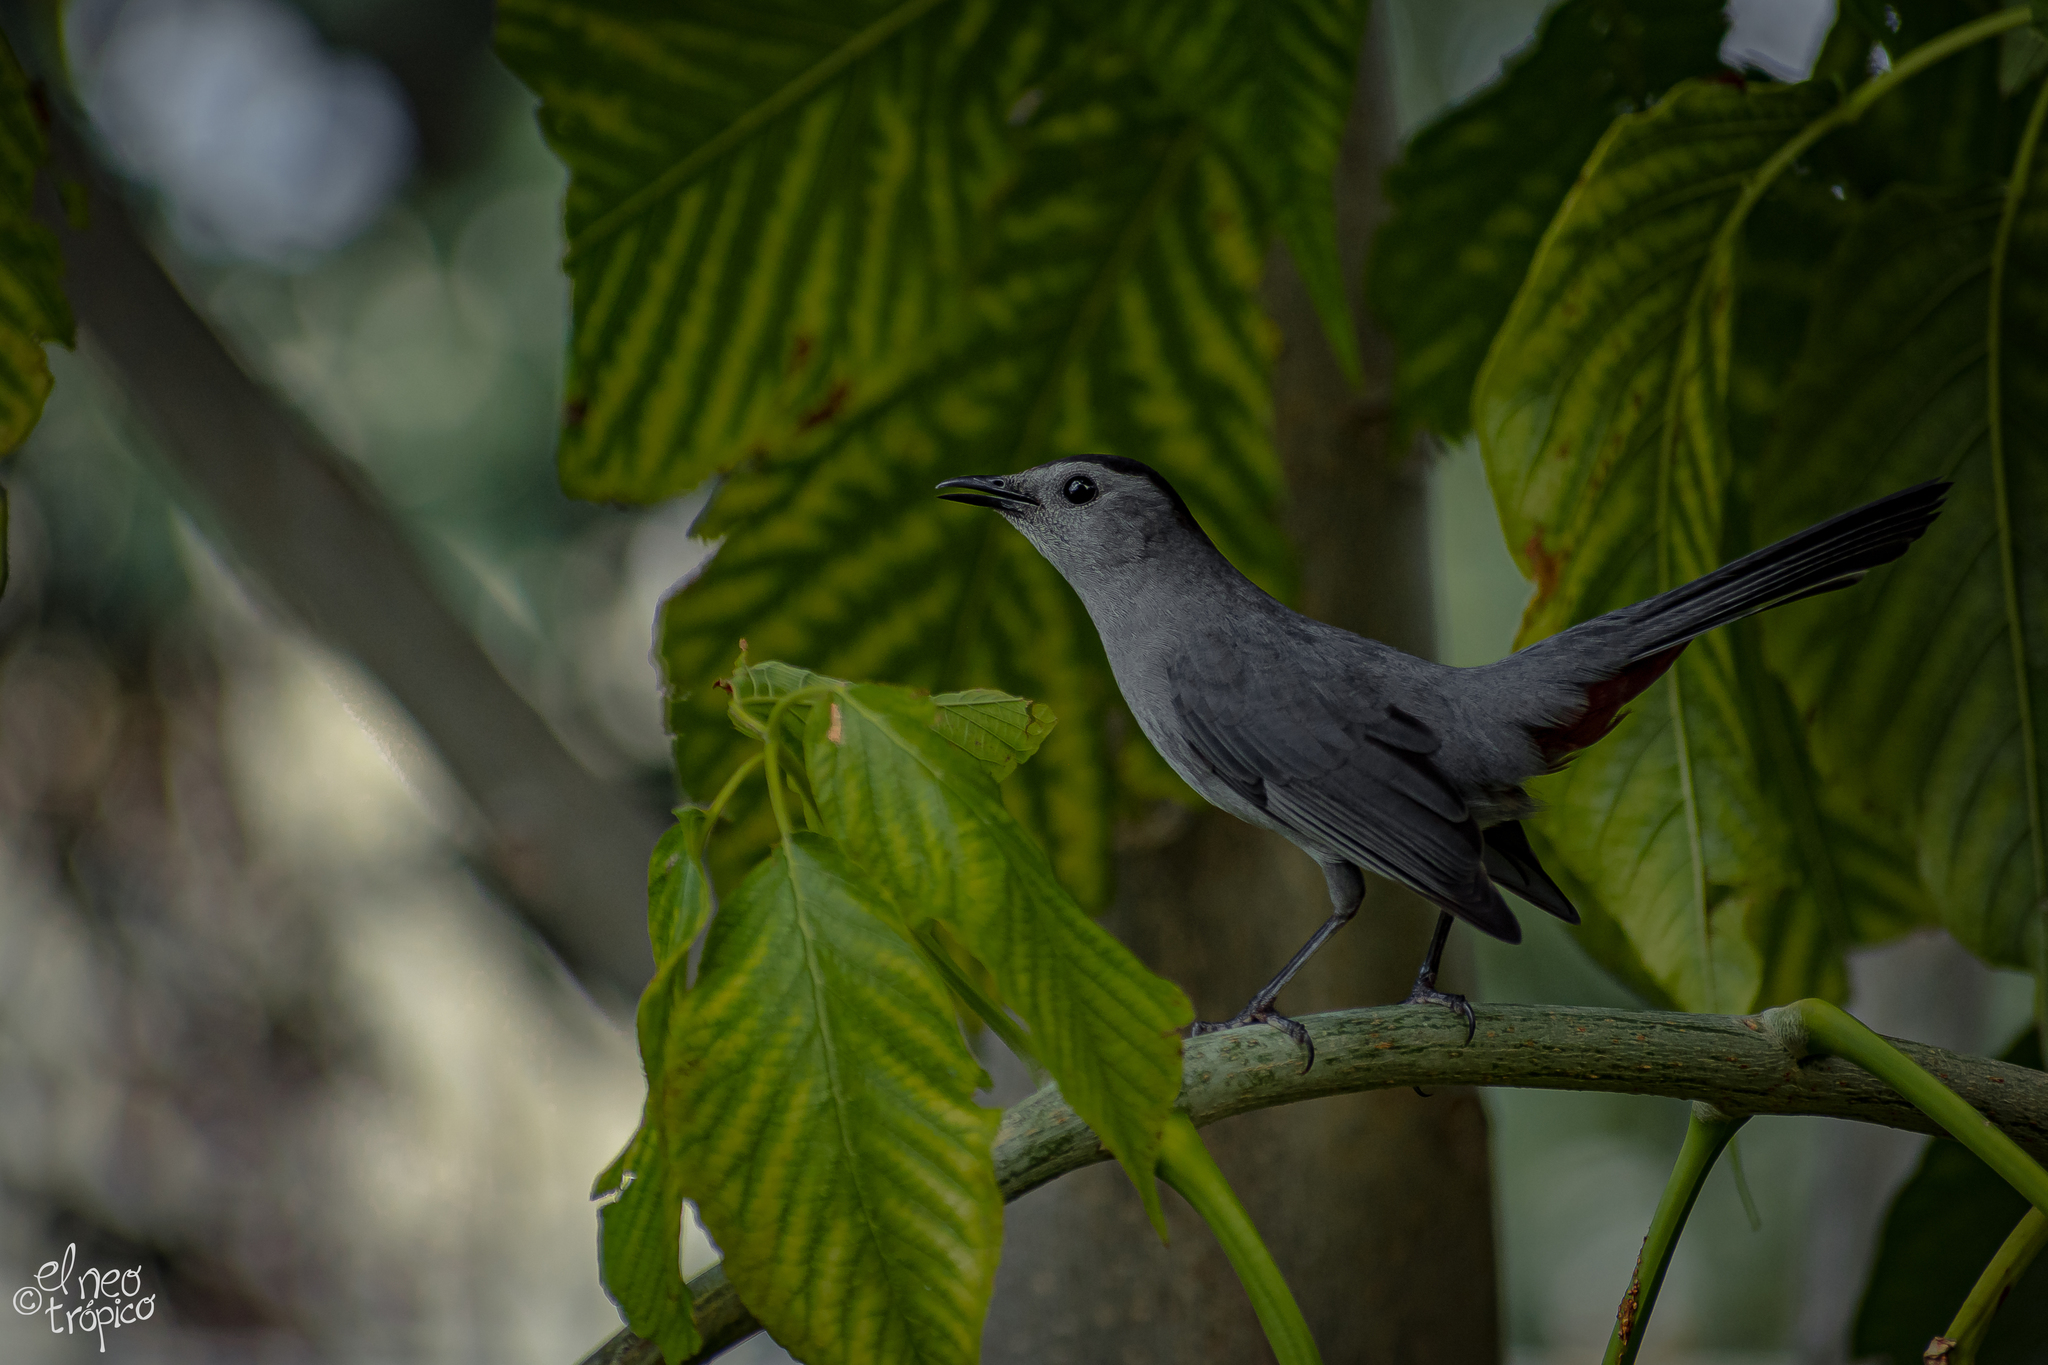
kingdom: Animalia
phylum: Chordata
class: Aves
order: Passeriformes
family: Mimidae
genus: Dumetella
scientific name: Dumetella carolinensis
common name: Gray catbird
